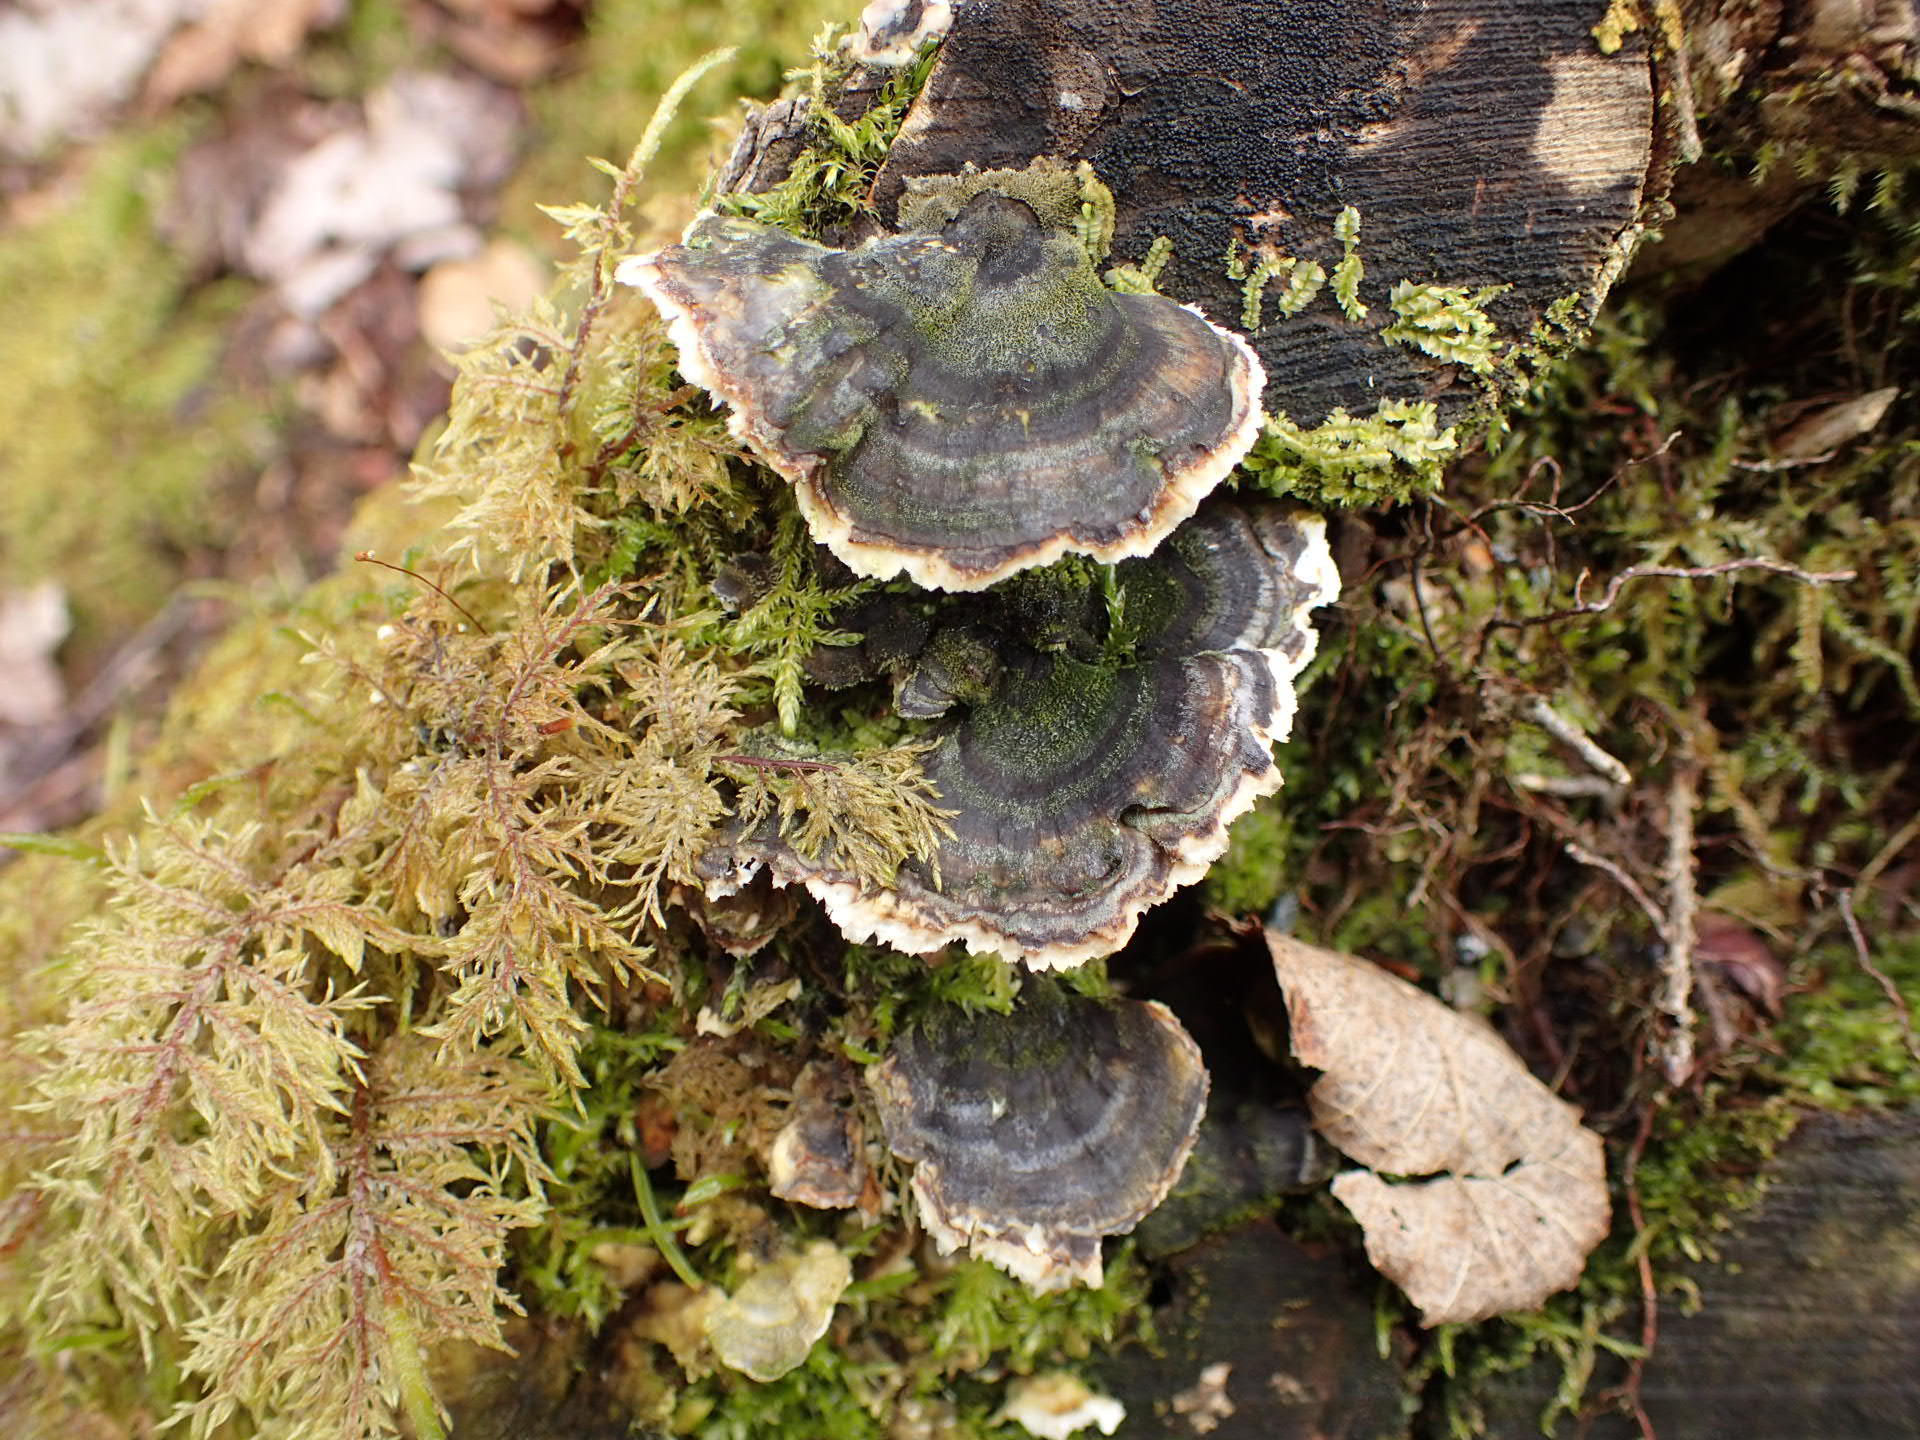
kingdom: Fungi
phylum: Basidiomycota
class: Agaricomycetes
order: Polyporales
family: Polyporaceae
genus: Trametes
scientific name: Trametes versicolor
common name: Turkeytail
